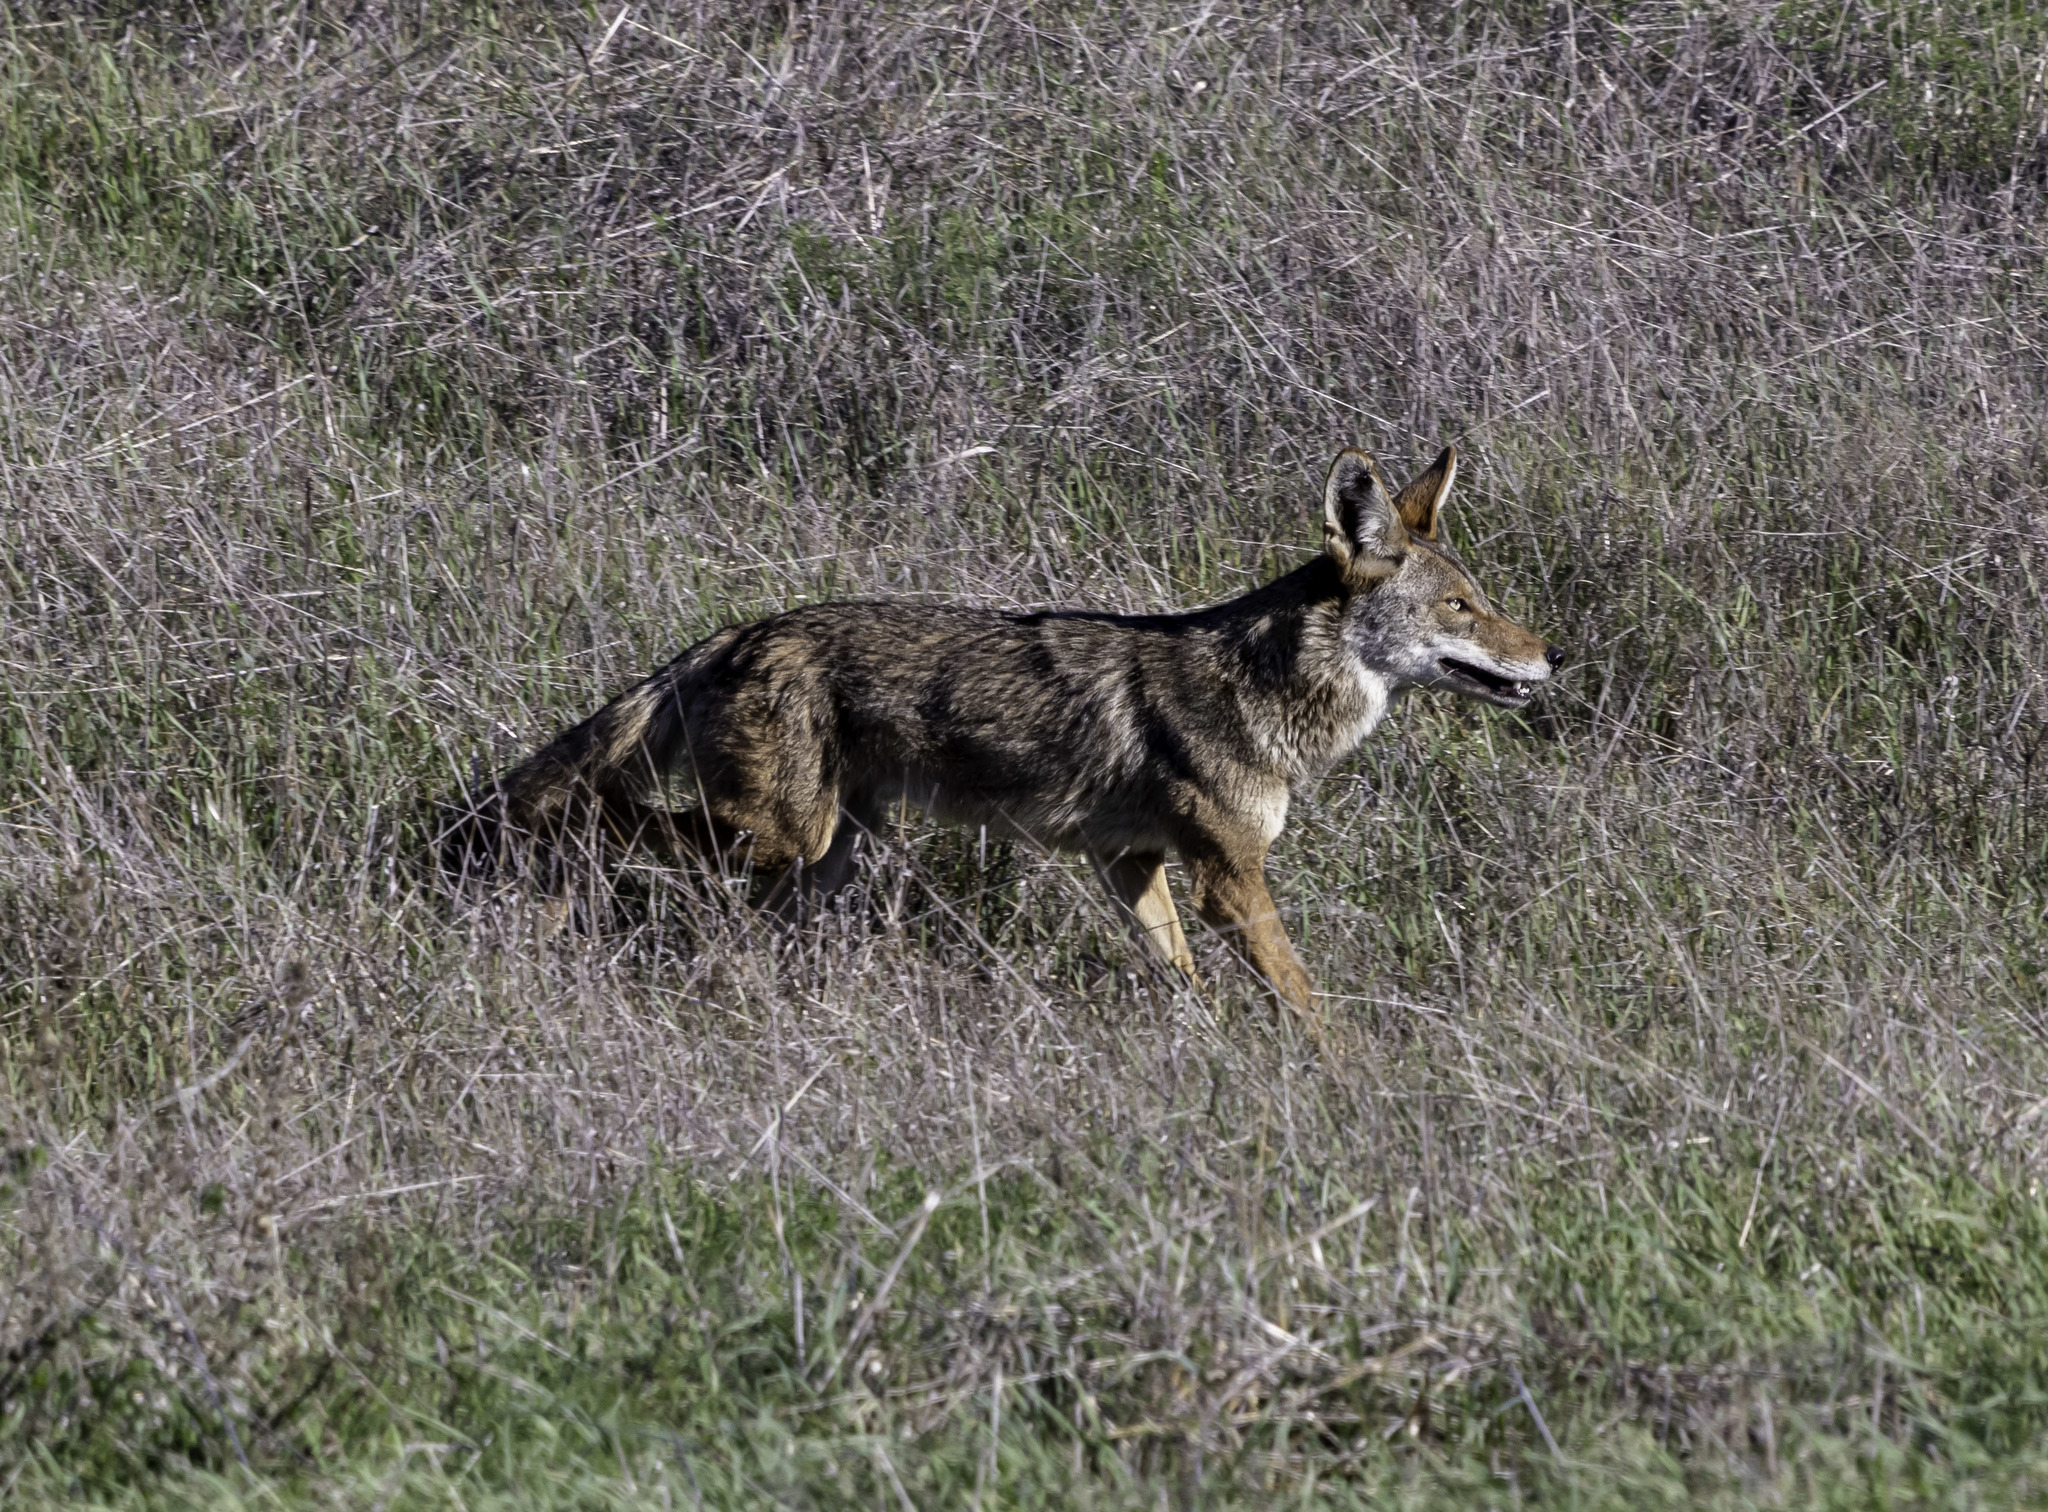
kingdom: Animalia
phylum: Chordata
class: Mammalia
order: Carnivora
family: Canidae
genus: Canis
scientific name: Canis latrans
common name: Coyote
